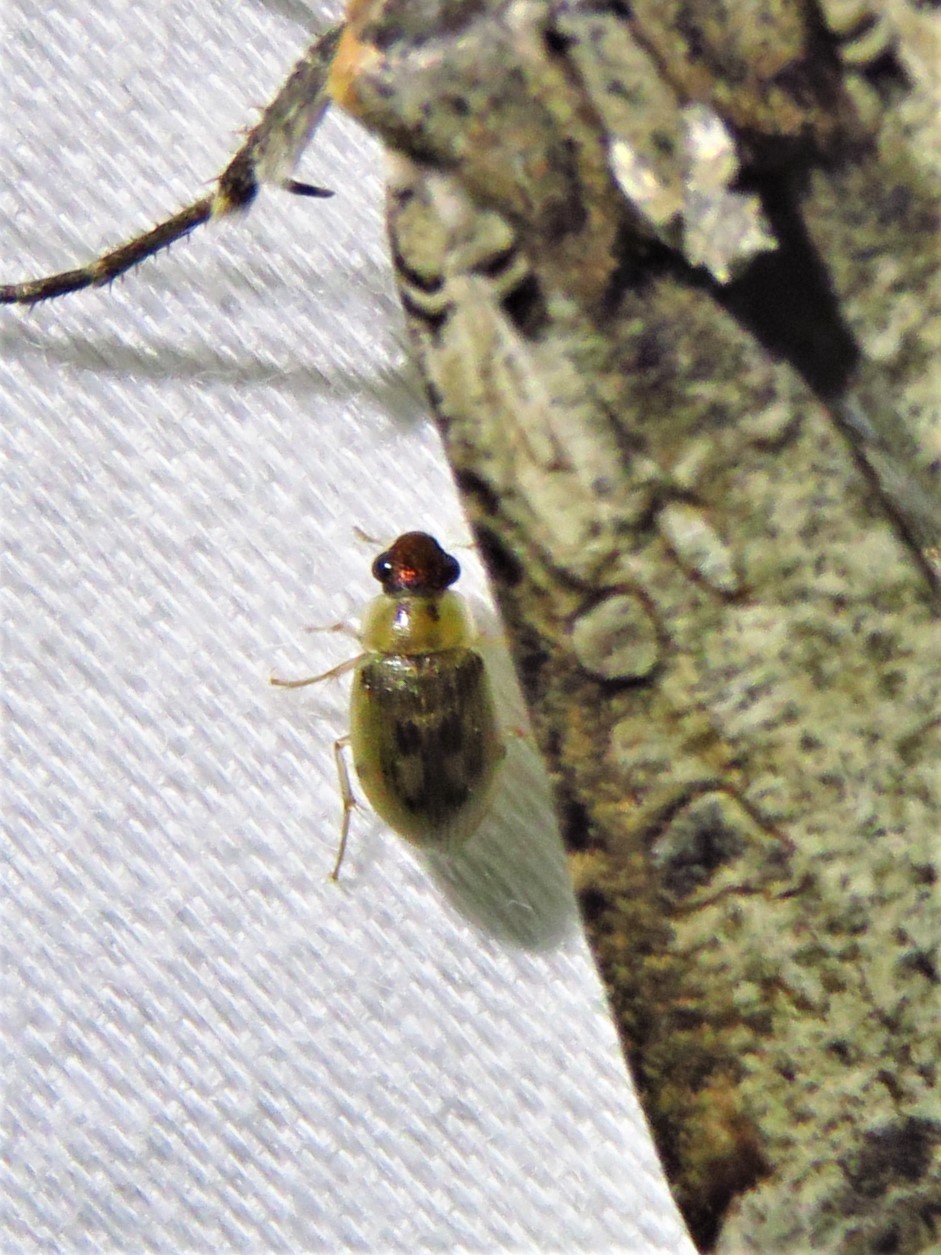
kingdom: Animalia
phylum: Arthropoda
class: Insecta
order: Coleoptera
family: Hydrophilidae
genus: Berosus
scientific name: Berosus
